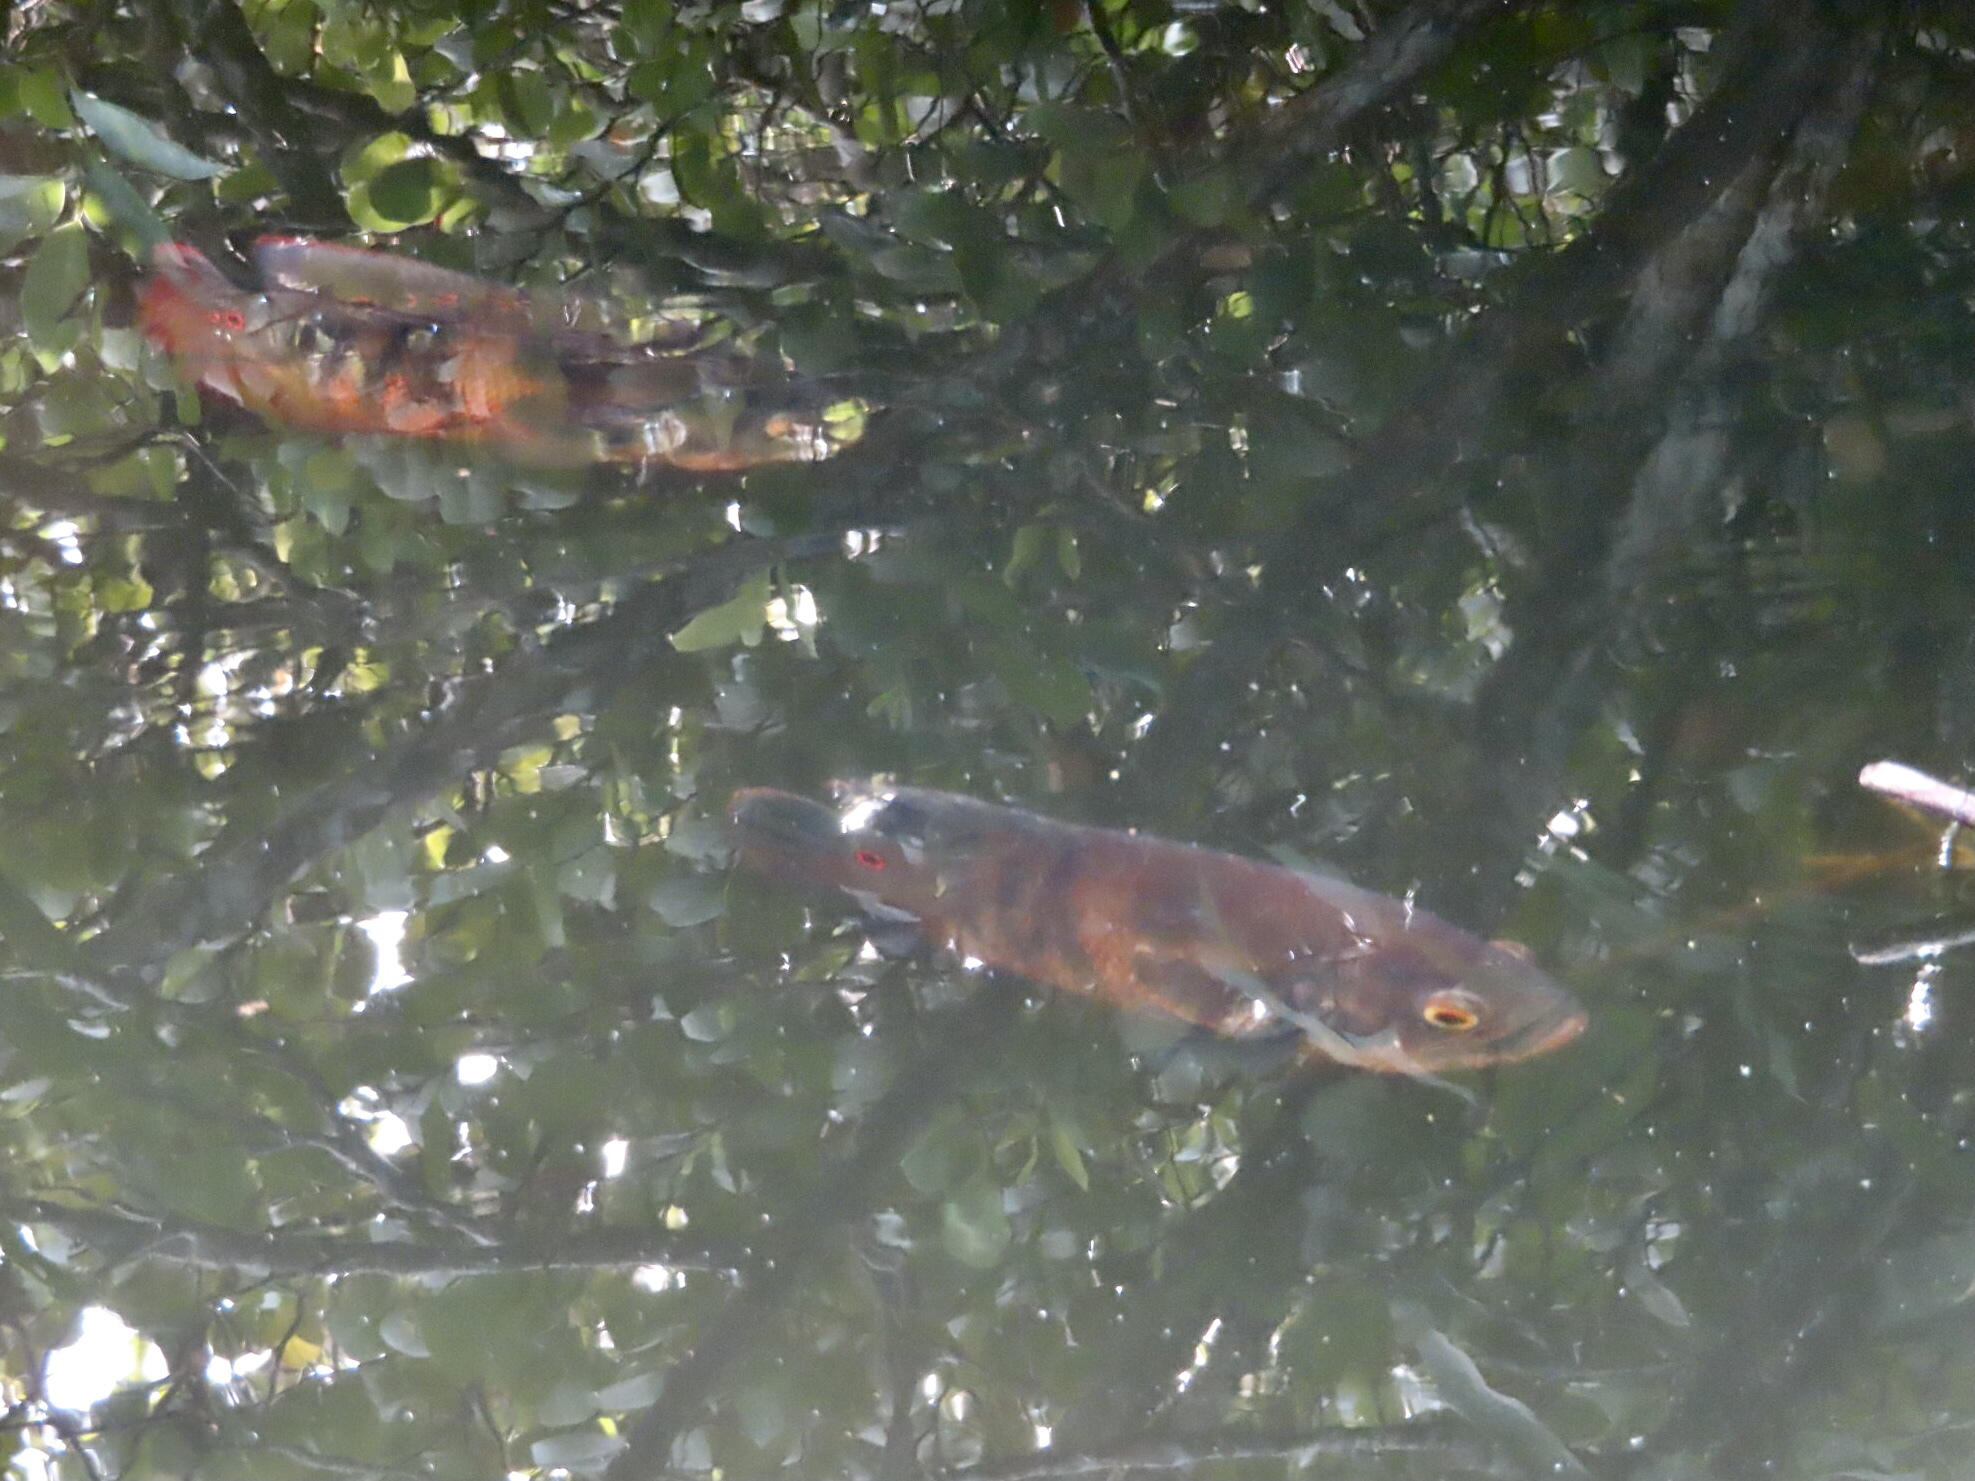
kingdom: Animalia
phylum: Chordata
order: Perciformes
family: Cichlidae
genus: Astronotus
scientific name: Astronotus ocellatus
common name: Oscar
